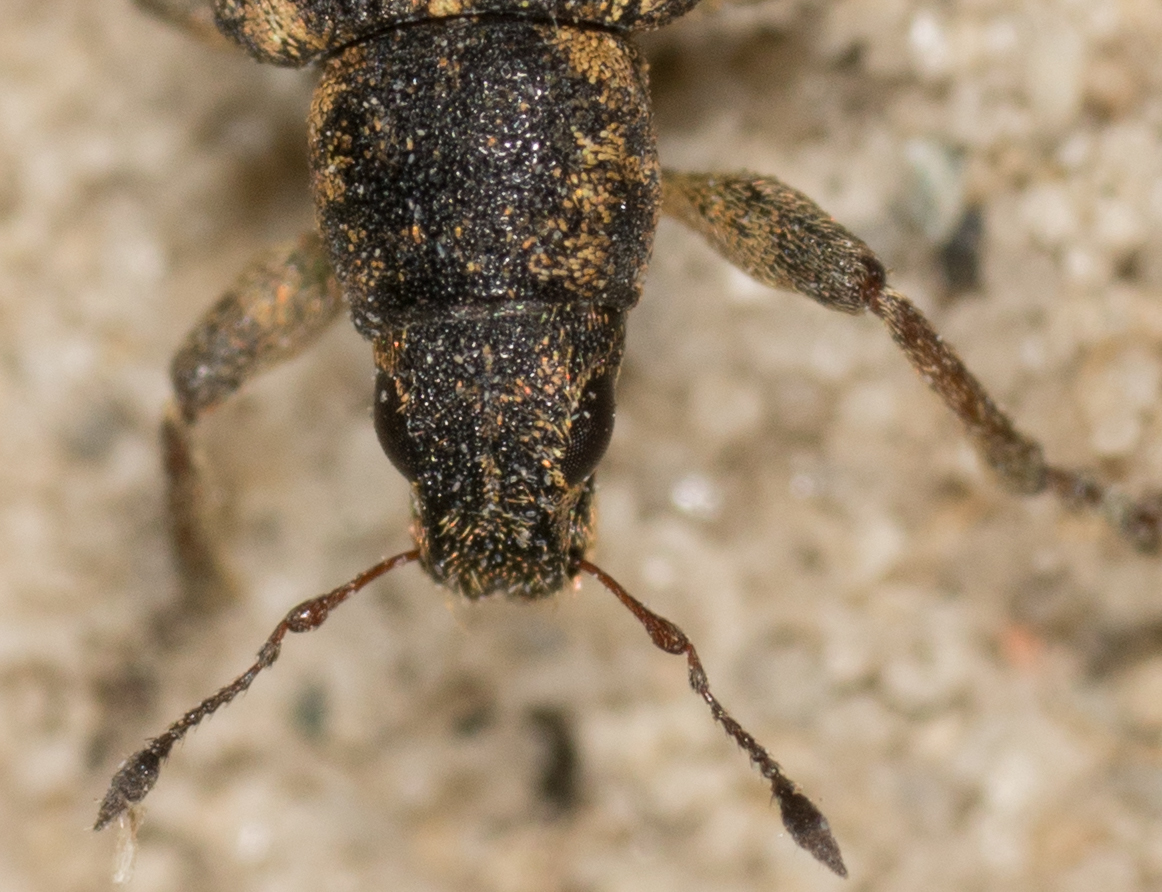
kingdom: Animalia
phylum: Arthropoda
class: Insecta
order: Coleoptera
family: Curculionidae
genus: Sitona
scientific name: Sitona cylindricollis
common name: Weevil
